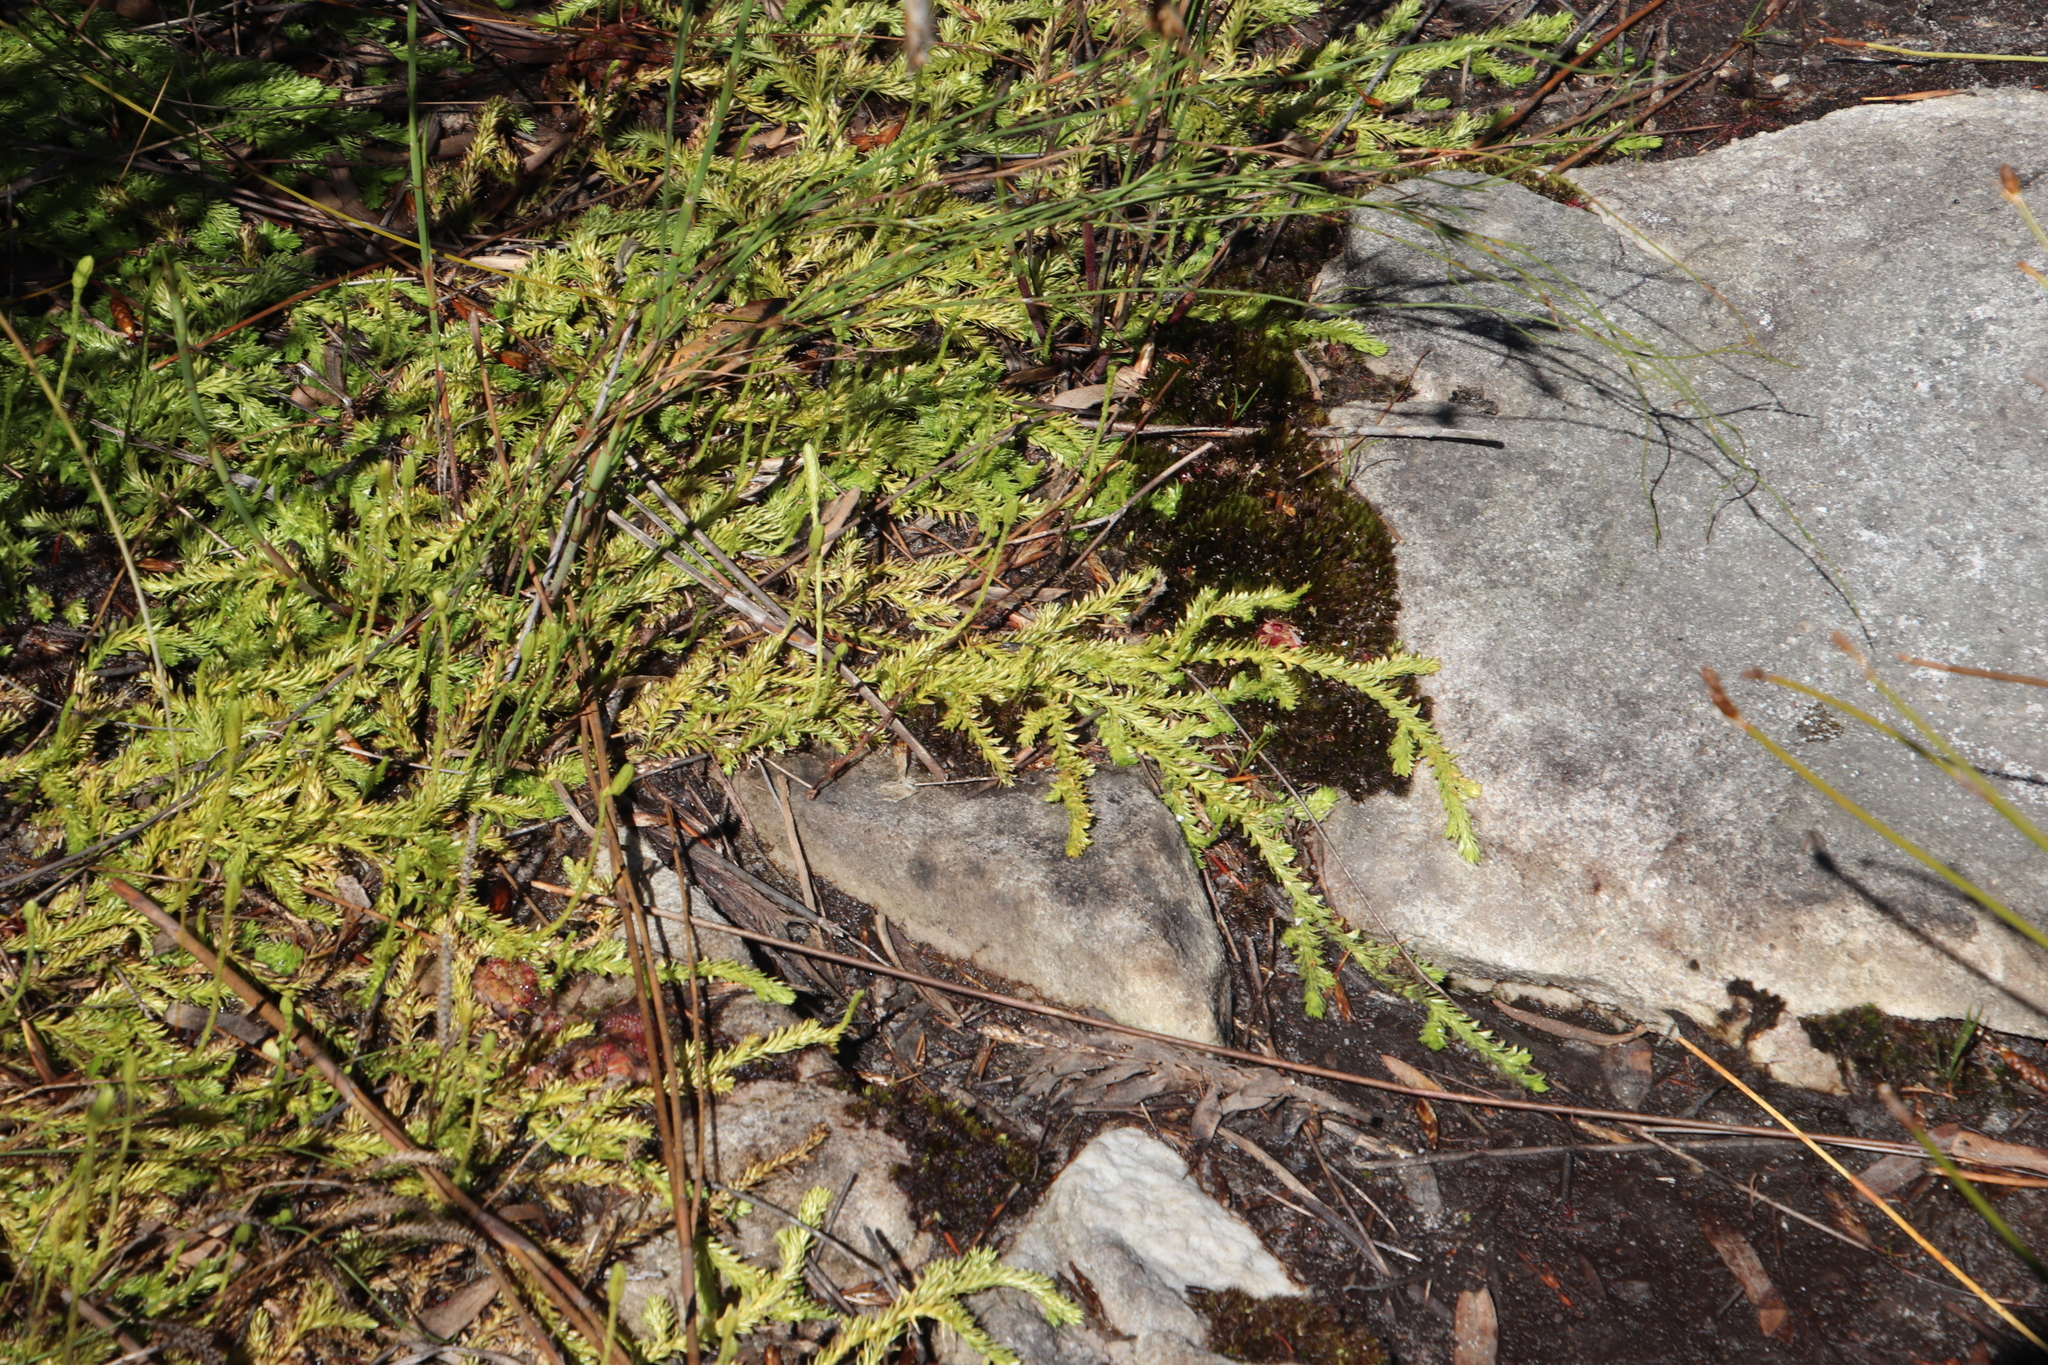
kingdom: Plantae
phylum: Tracheophyta
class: Lycopodiopsida
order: Lycopodiales
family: Lycopodiaceae
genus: Pseudolycopodiella
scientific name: Pseudolycopodiella caroliniana
